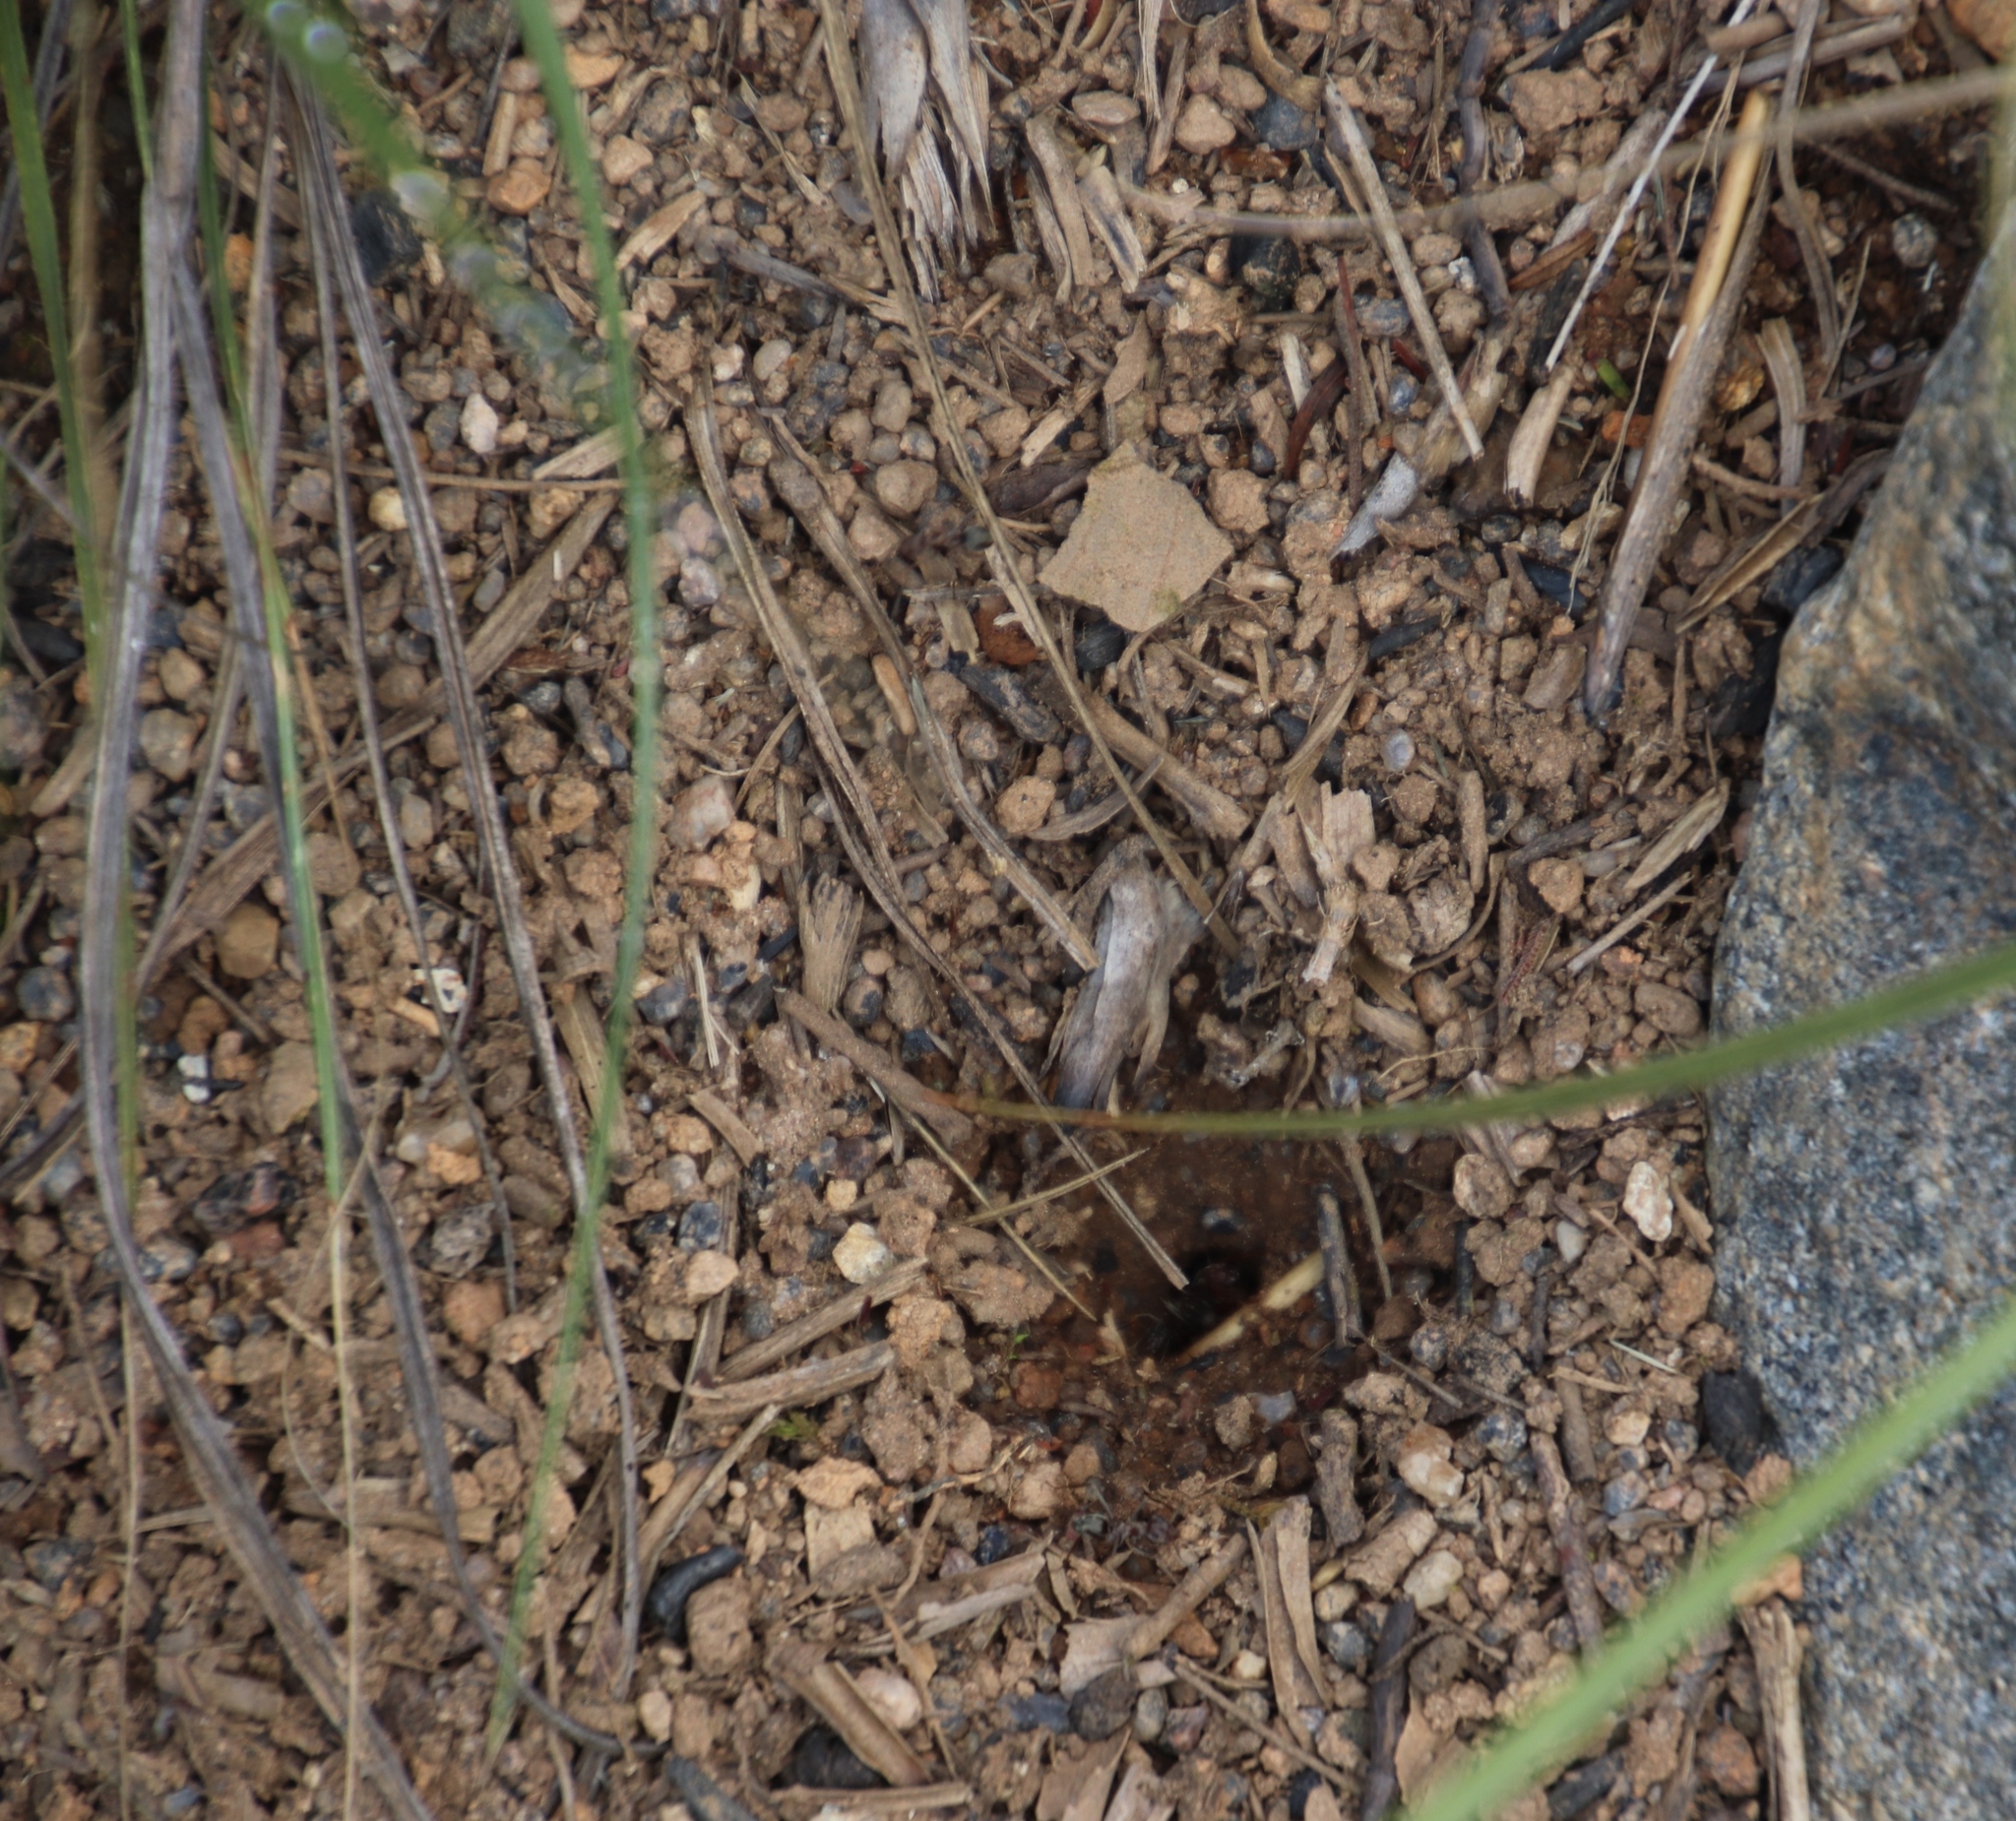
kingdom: Animalia
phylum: Arthropoda
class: Insecta
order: Hymenoptera
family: Formicidae
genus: Anoplolepis
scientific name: Anoplolepis custodiens
